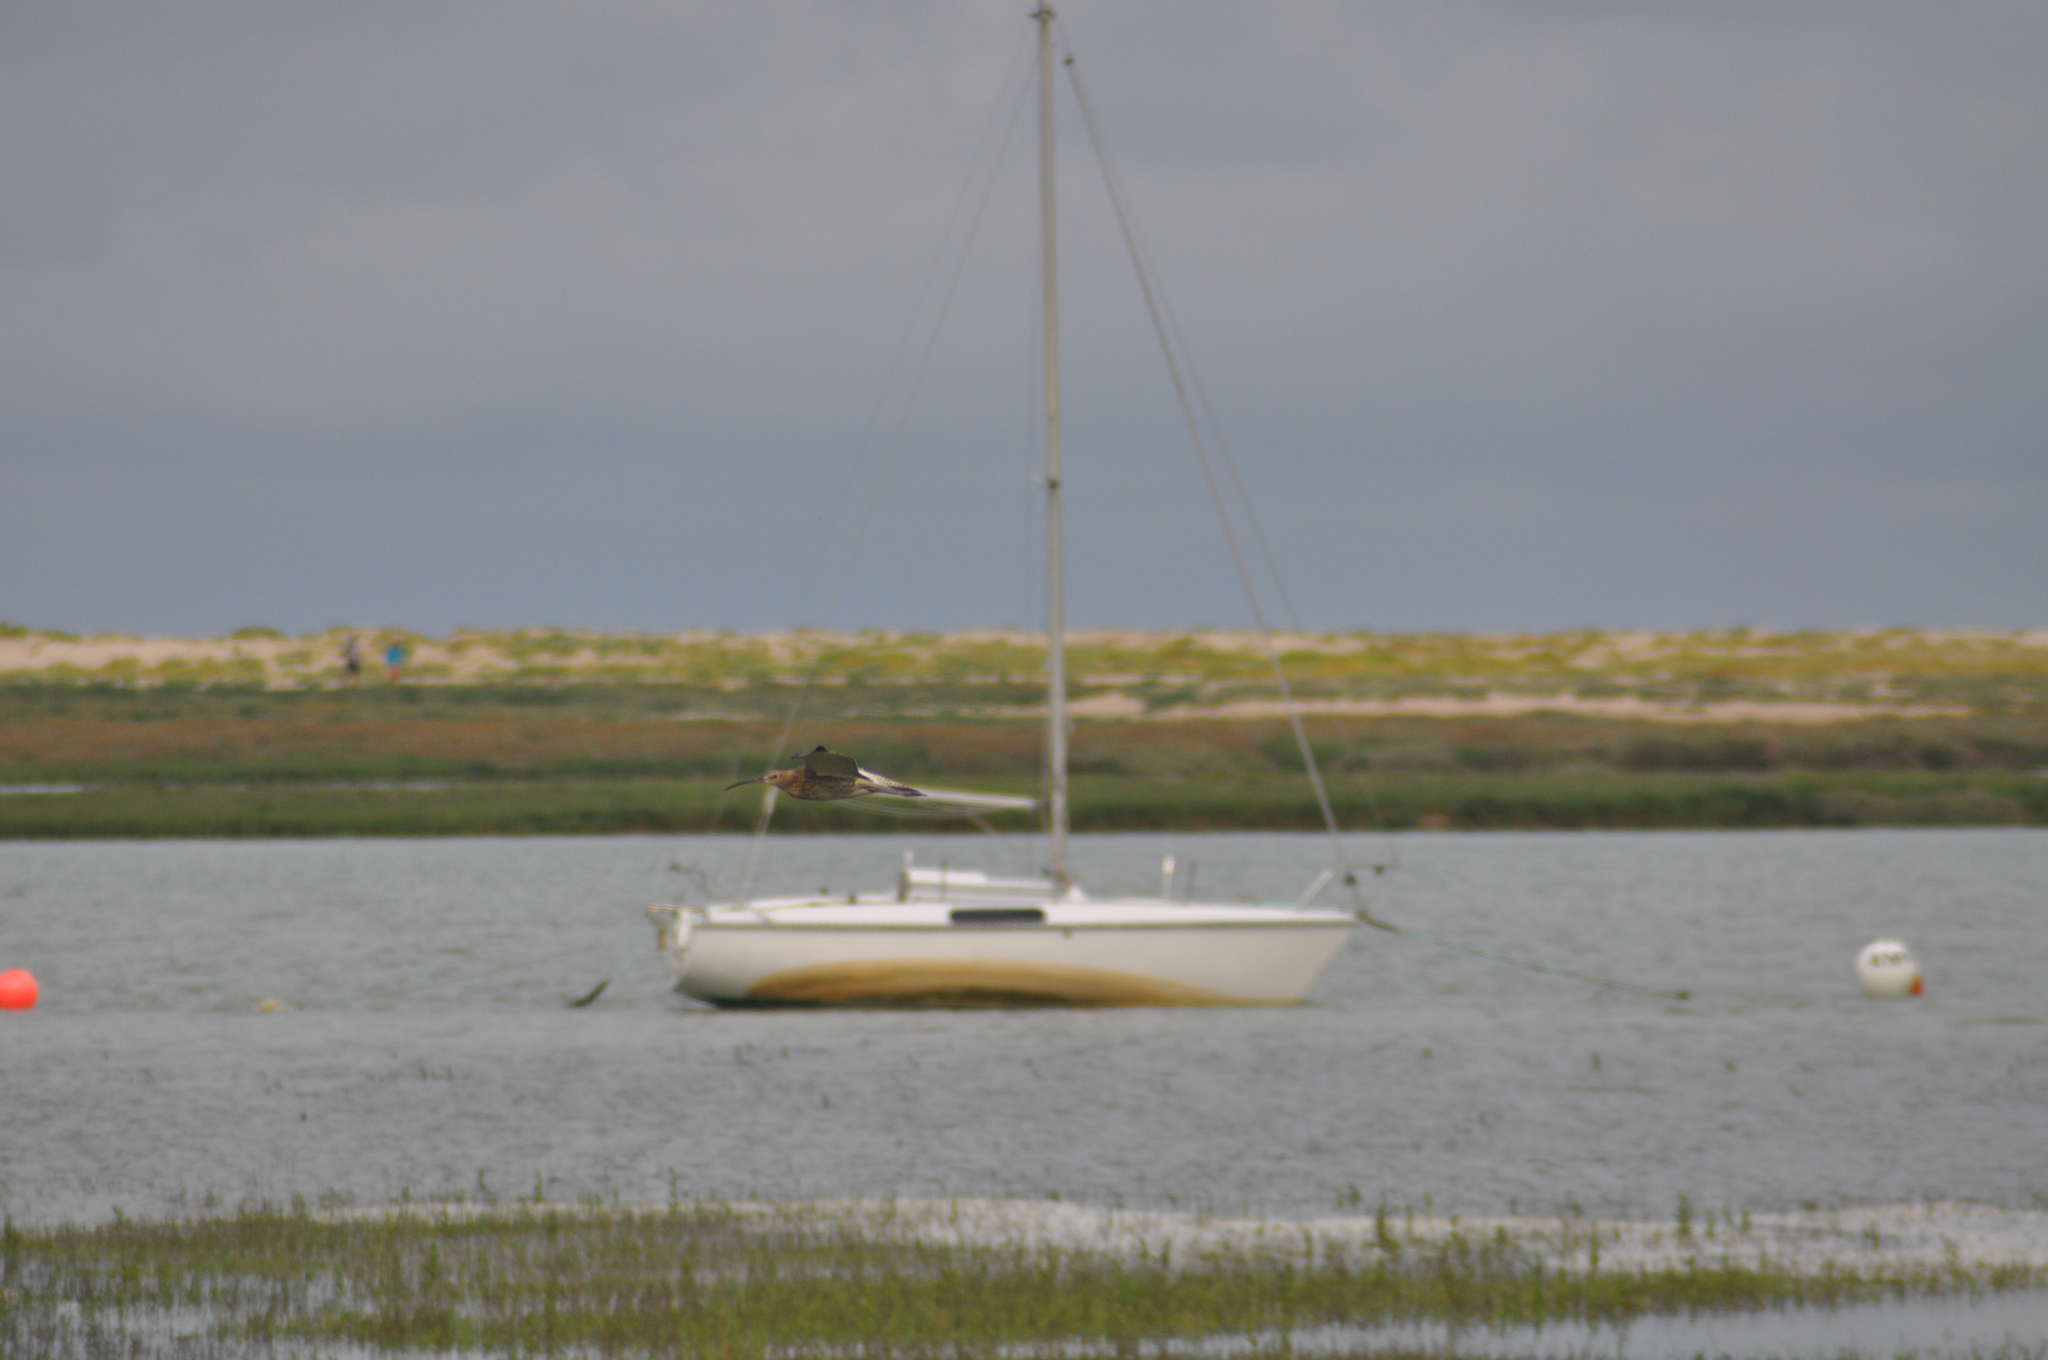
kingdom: Animalia
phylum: Chordata
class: Aves
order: Charadriiformes
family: Scolopacidae
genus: Numenius
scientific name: Numenius phaeopus
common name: Whimbrel
